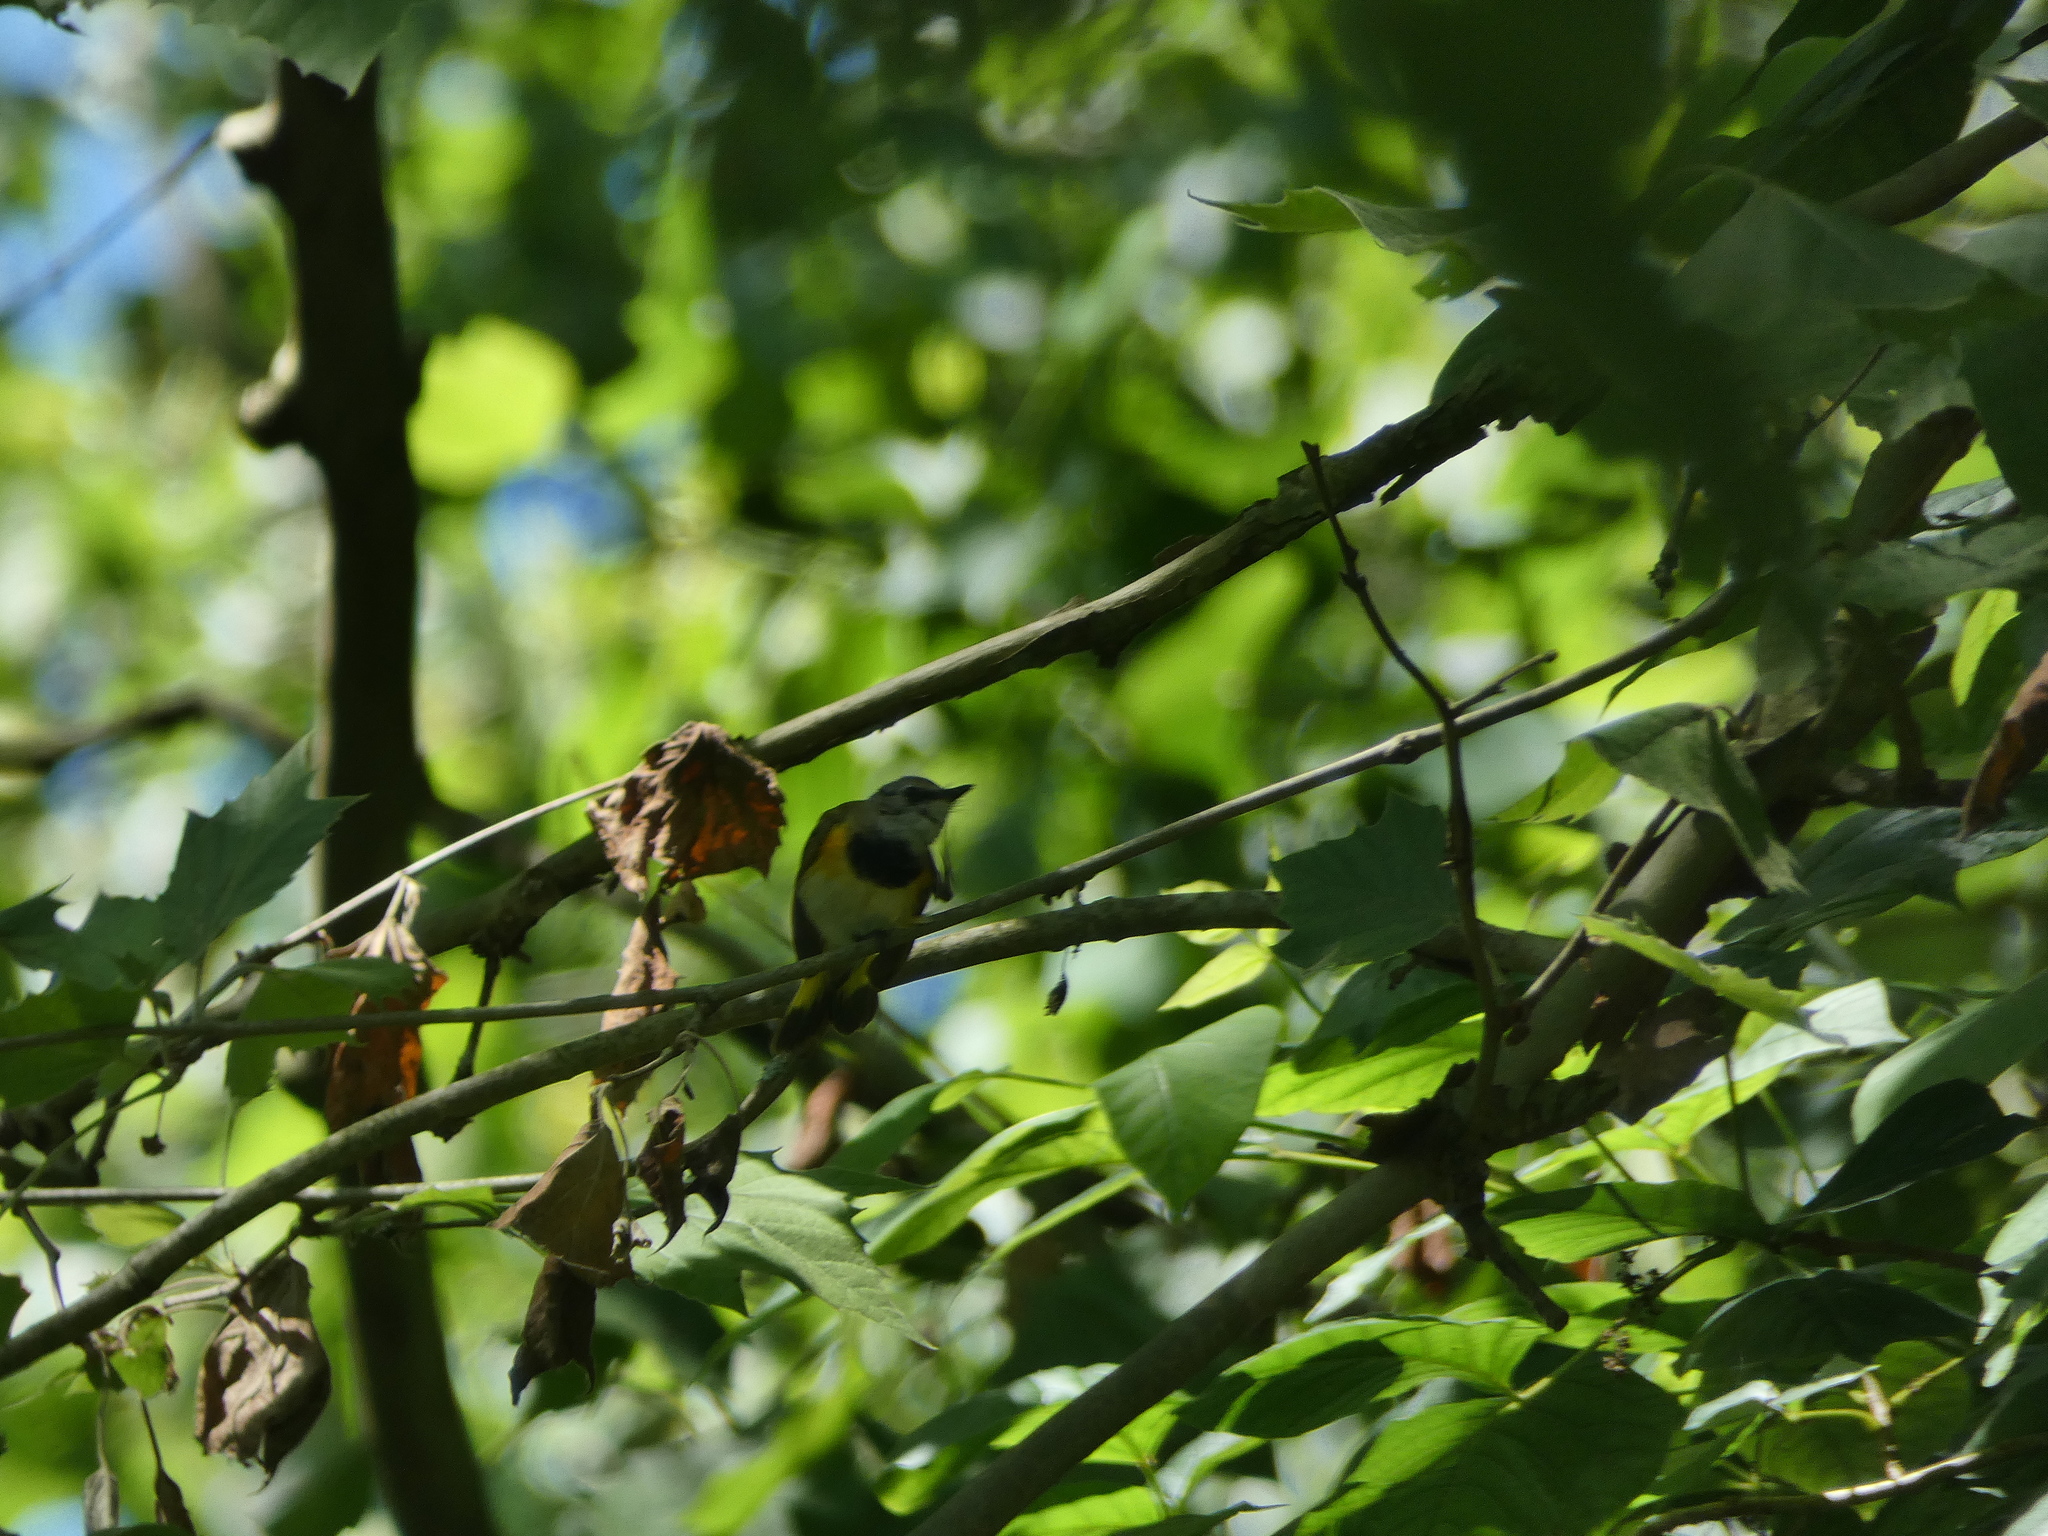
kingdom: Animalia
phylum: Chordata
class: Aves
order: Passeriformes
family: Parulidae
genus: Setophaga
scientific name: Setophaga ruticilla
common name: American redstart
